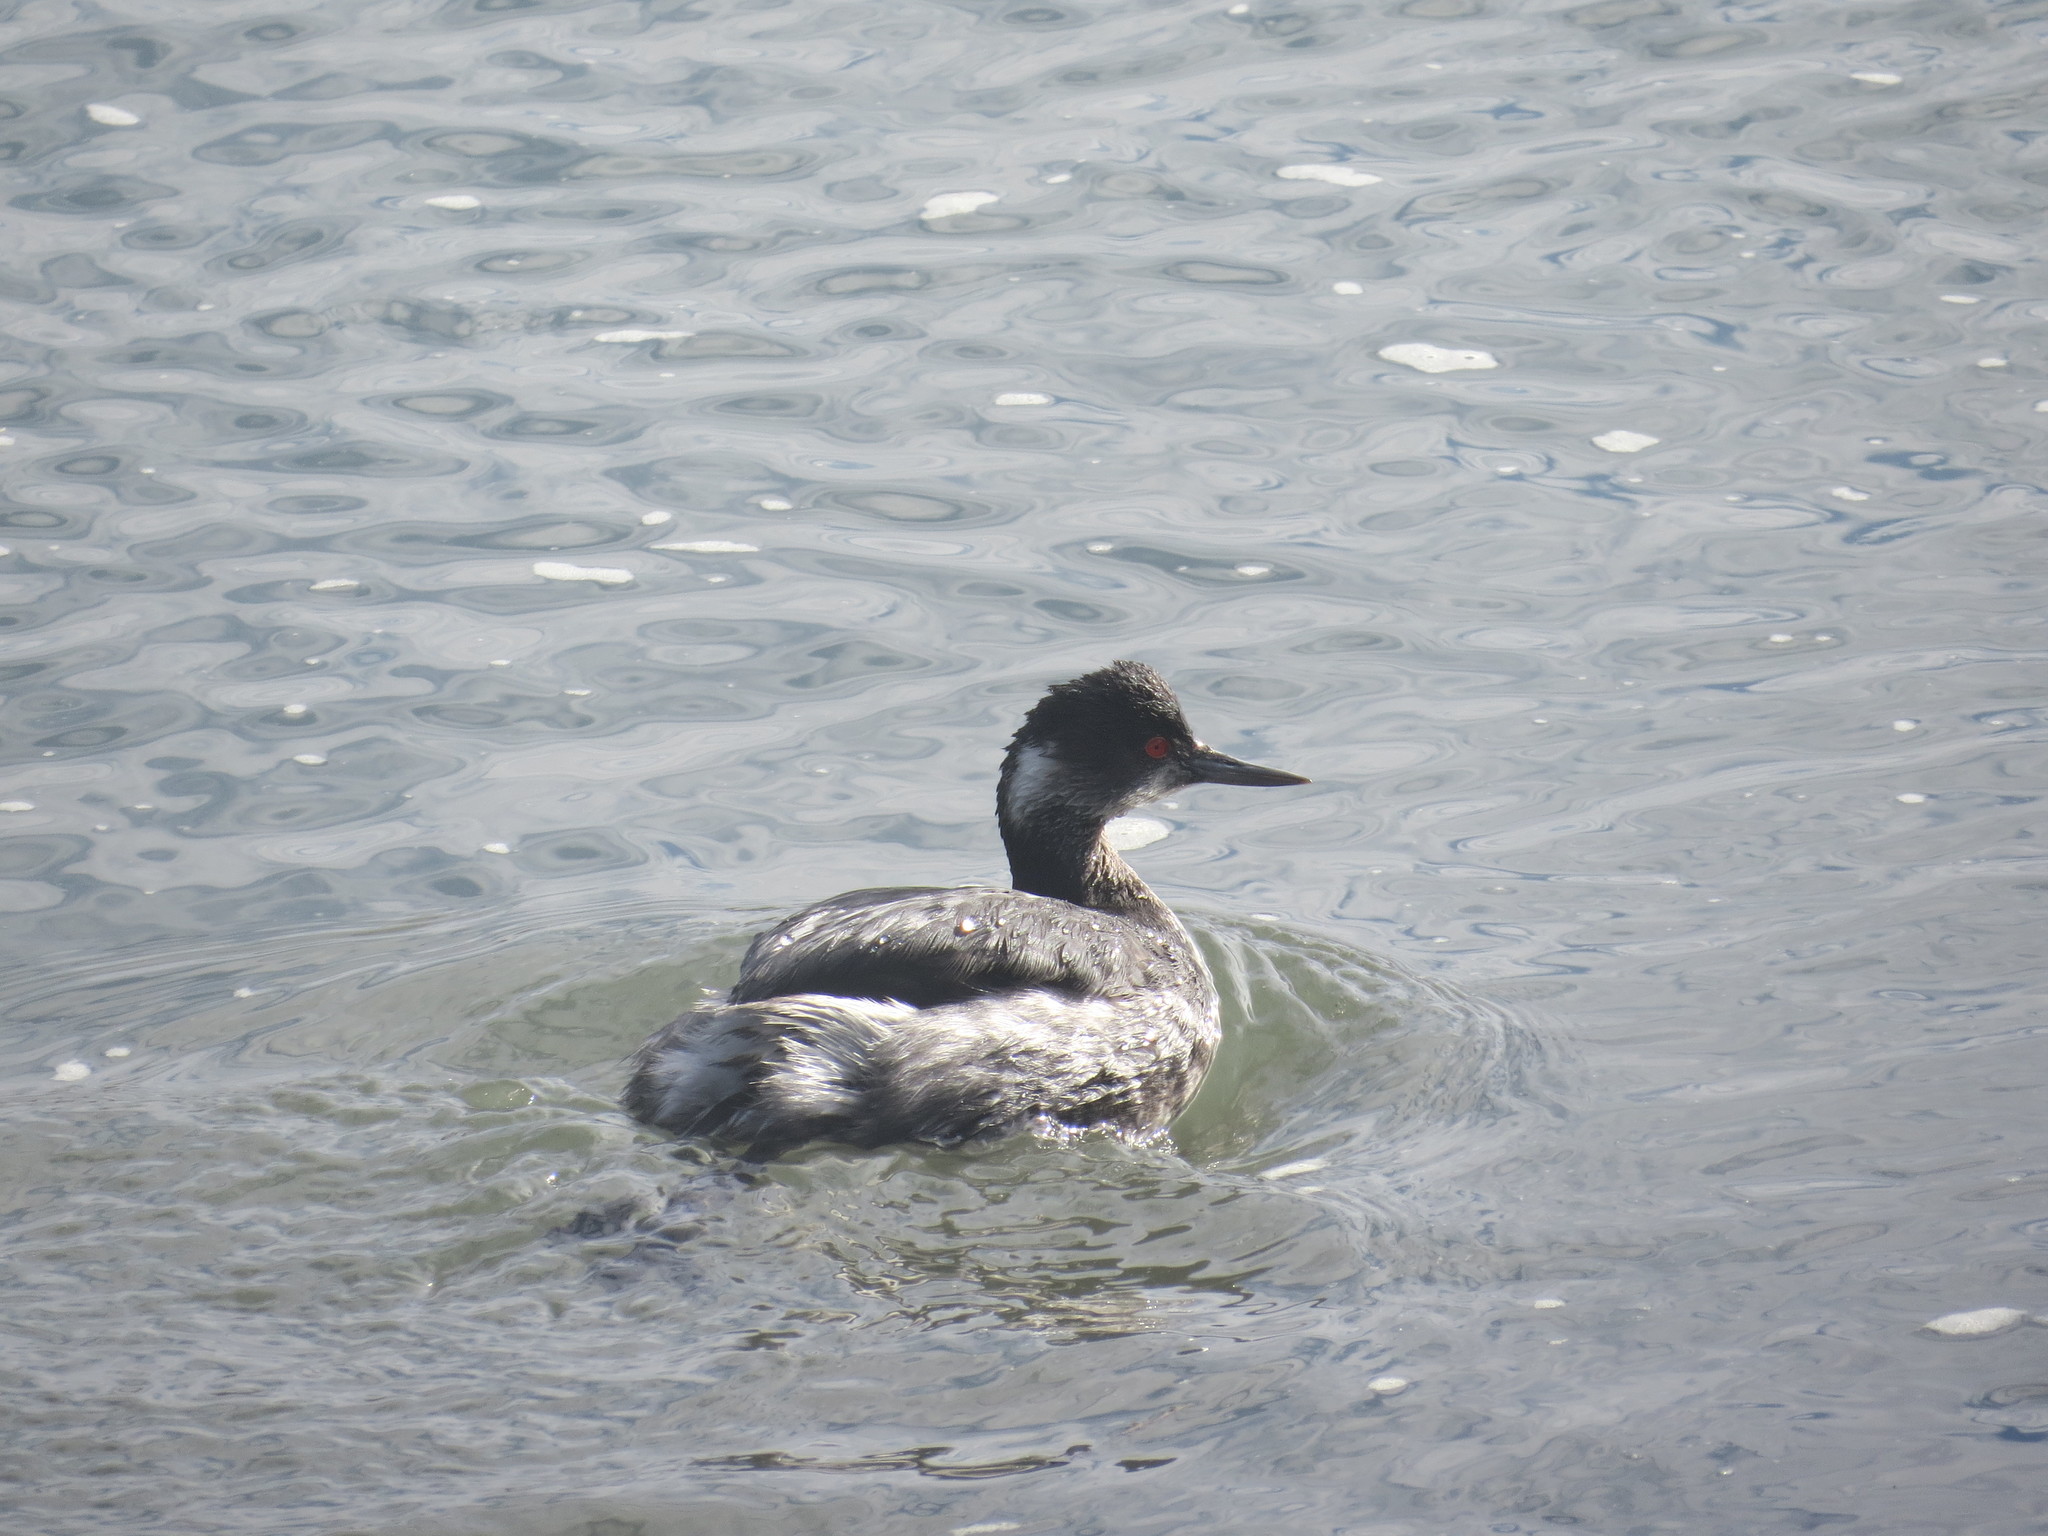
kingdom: Animalia
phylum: Chordata
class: Aves
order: Podicipediformes
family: Podicipedidae
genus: Podiceps
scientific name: Podiceps nigricollis
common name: Black-necked grebe
